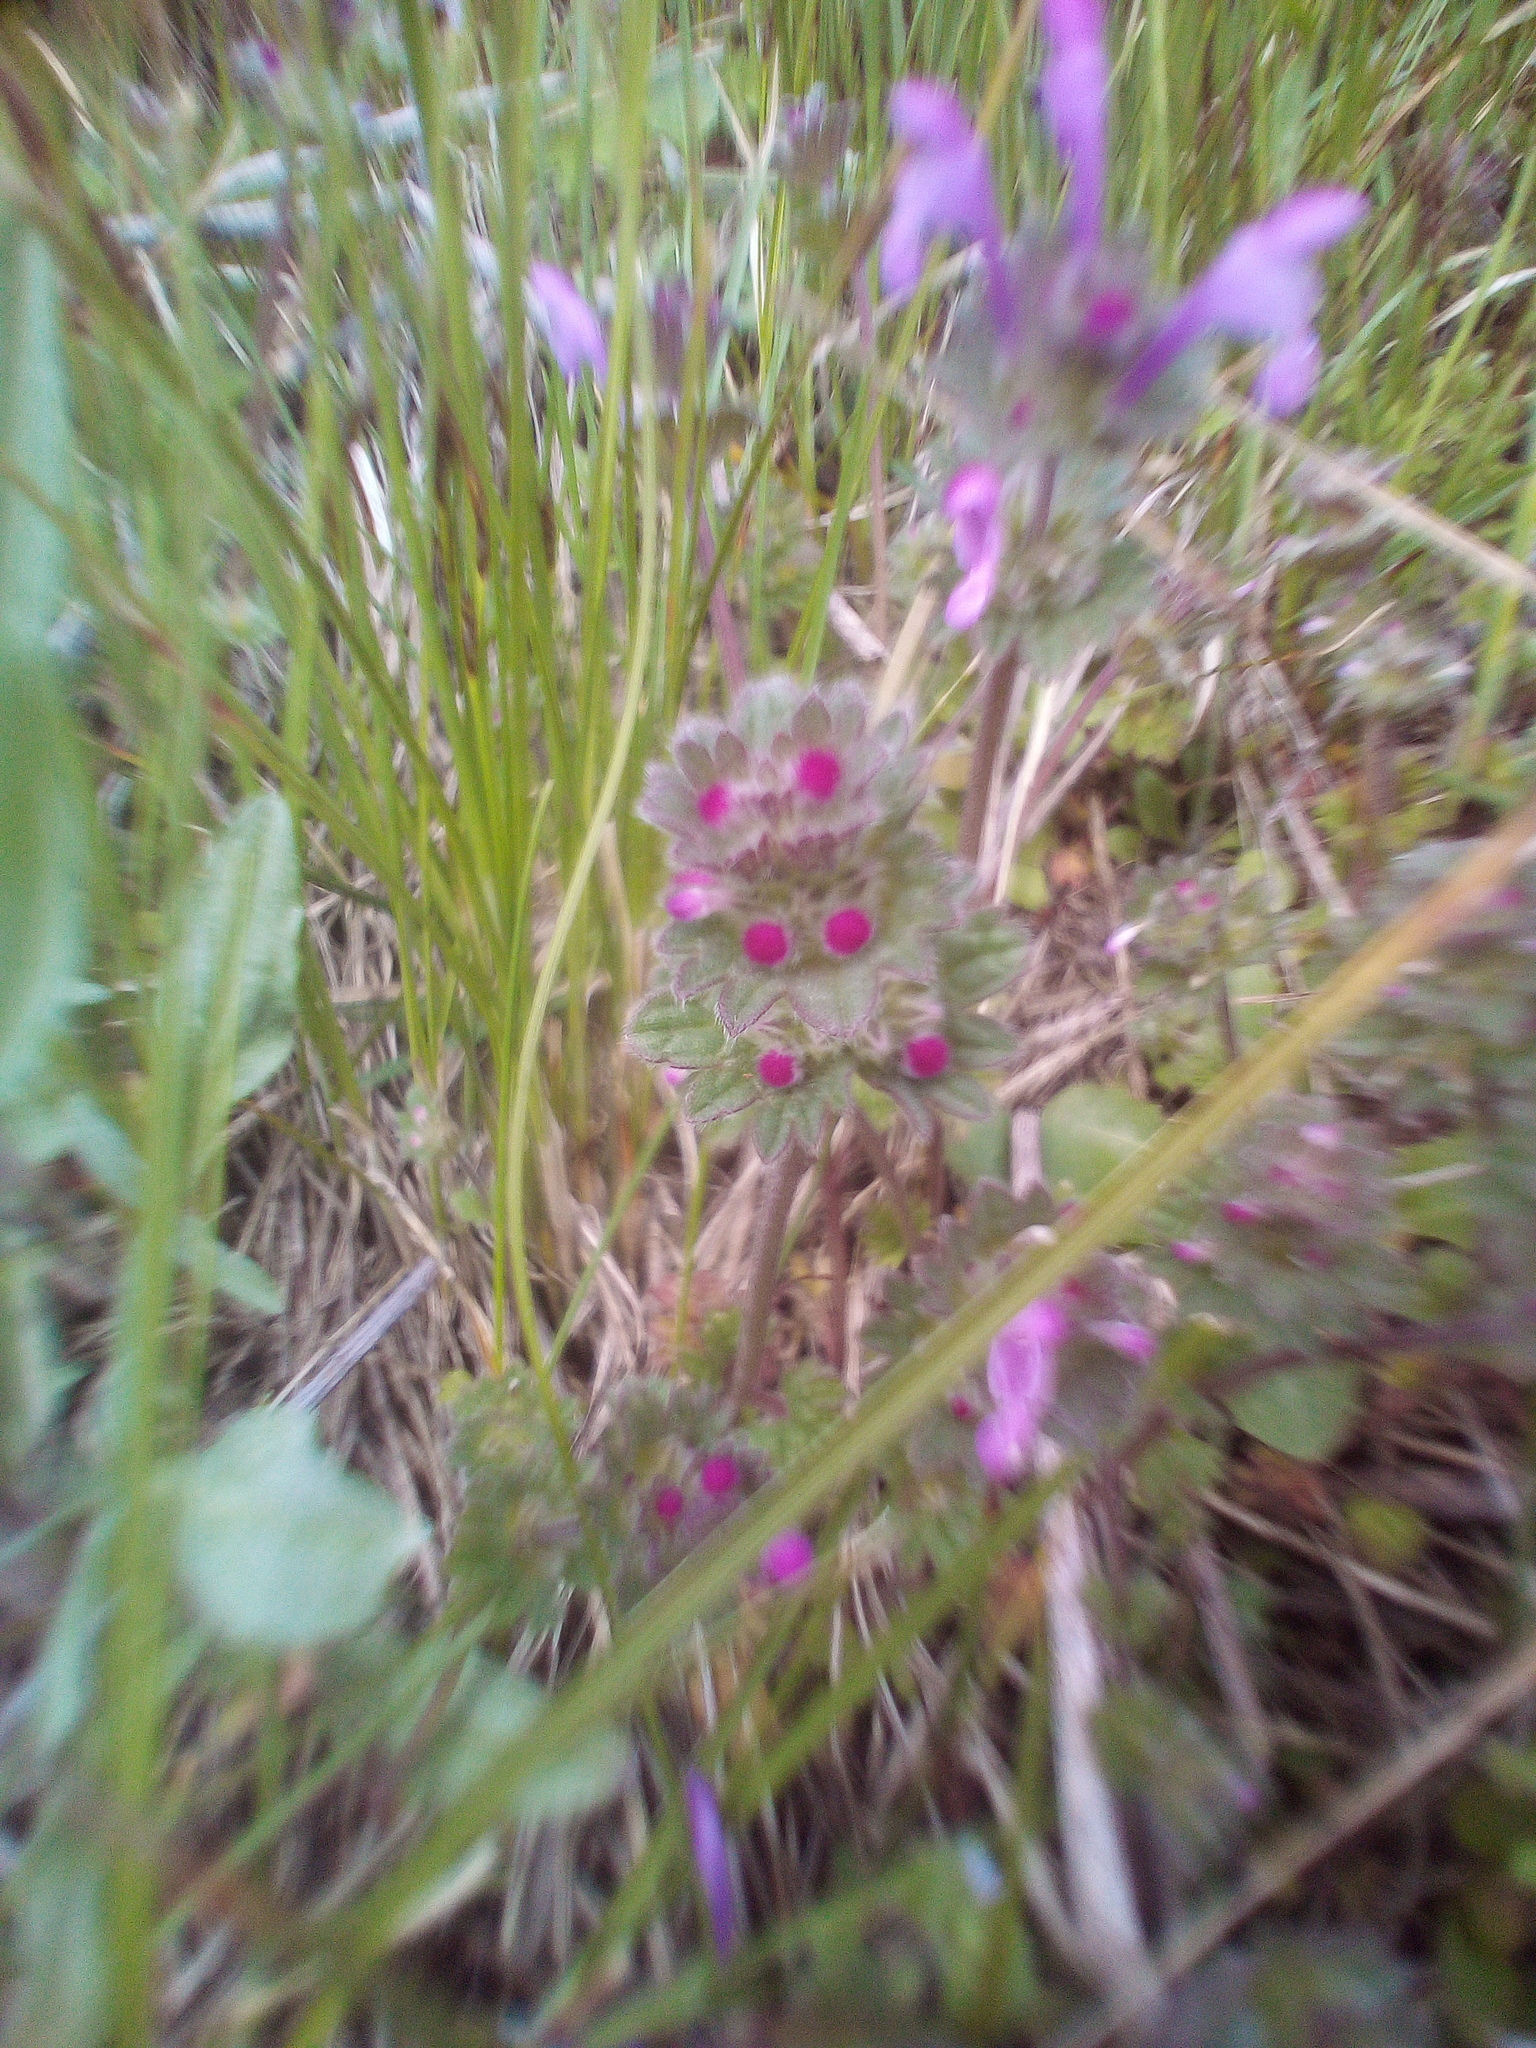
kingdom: Plantae
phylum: Tracheophyta
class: Magnoliopsida
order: Lamiales
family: Lamiaceae
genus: Lamium
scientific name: Lamium amplexicaule
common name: Henbit dead-nettle
